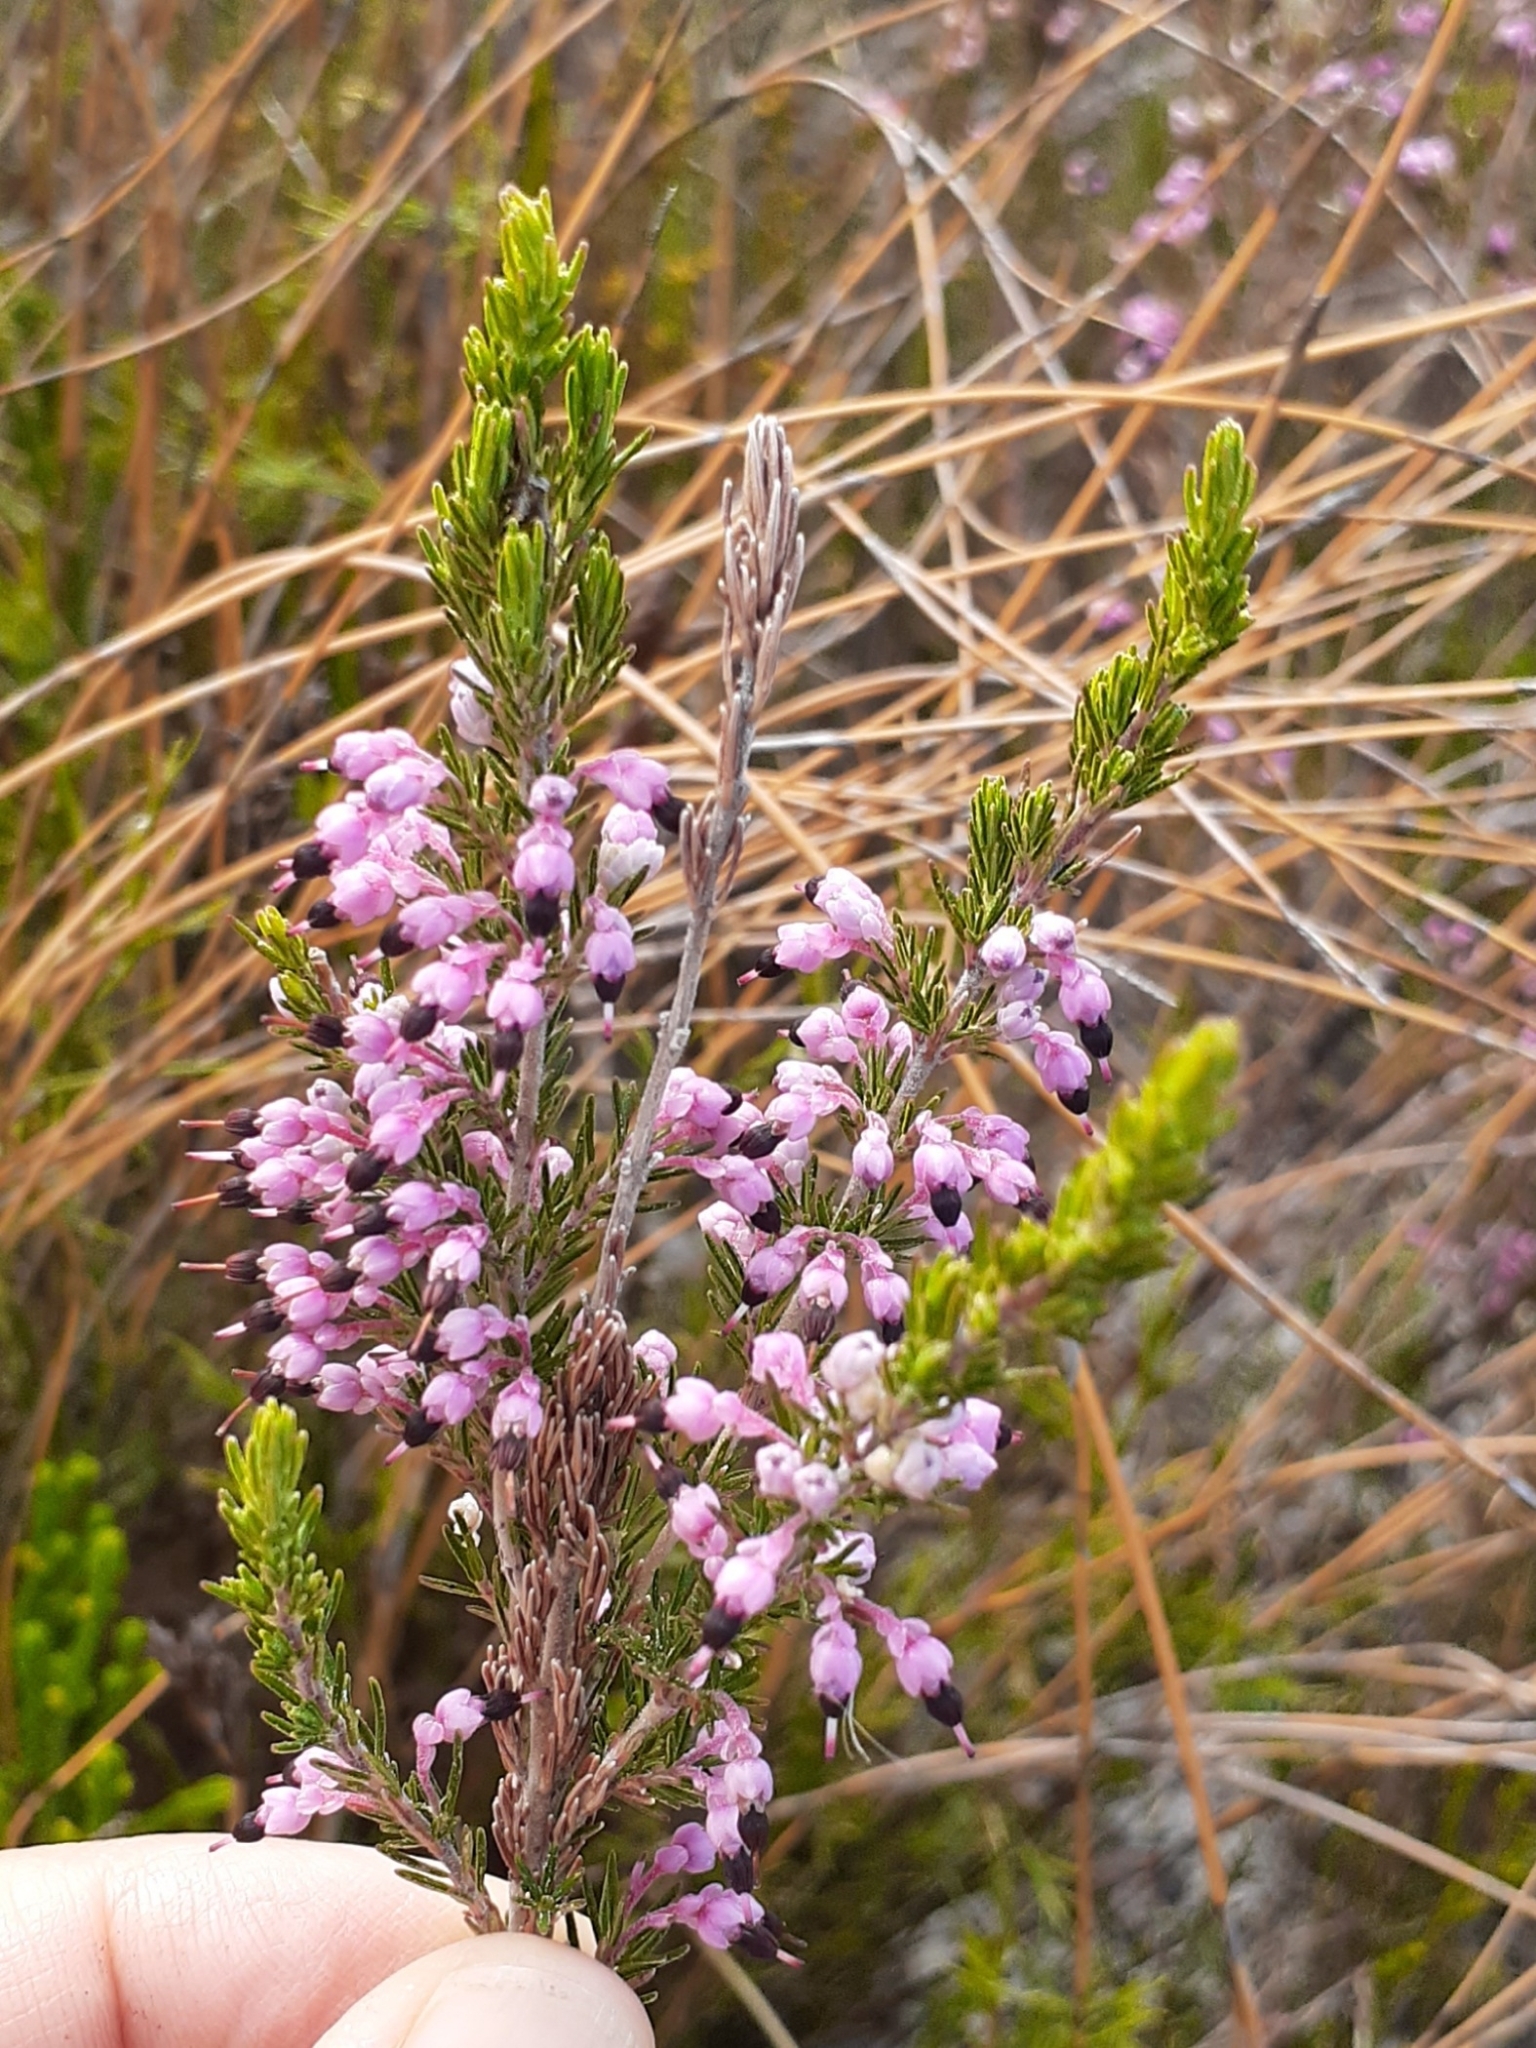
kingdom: Plantae
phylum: Tracheophyta
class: Magnoliopsida
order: Ericales
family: Ericaceae
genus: Erica
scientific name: Erica placentiflora
